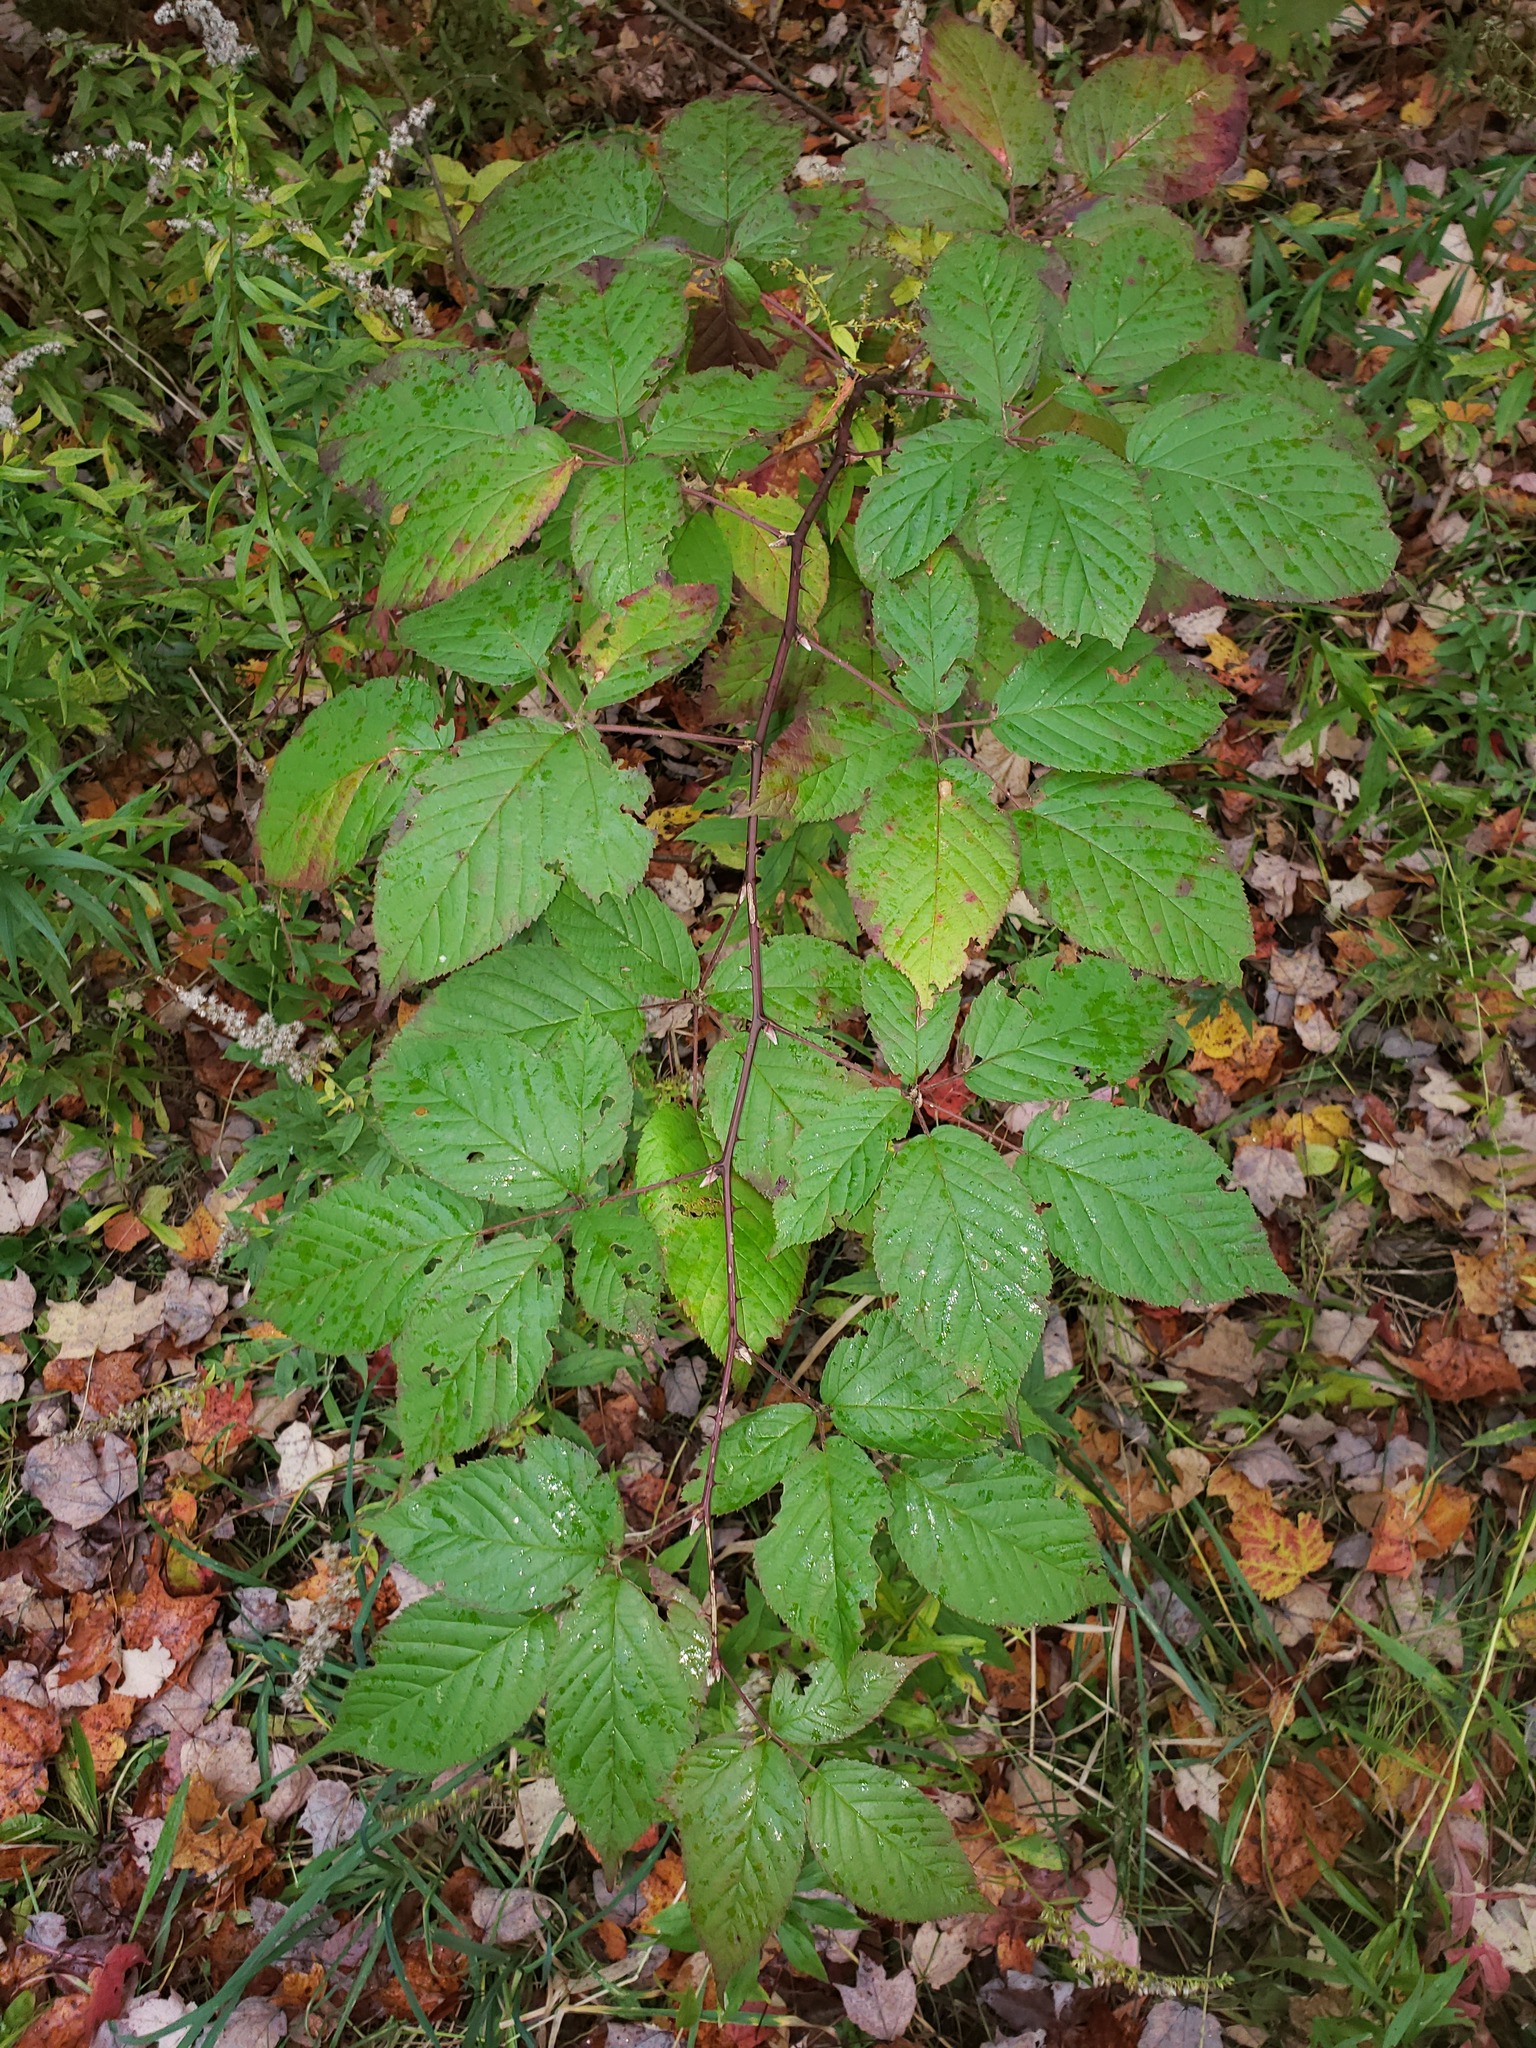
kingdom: Plantae
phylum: Tracheophyta
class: Magnoliopsida
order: Rosales
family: Rosaceae
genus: Rubus
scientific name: Rubus allegheniensis
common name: Allegheny blackberry
